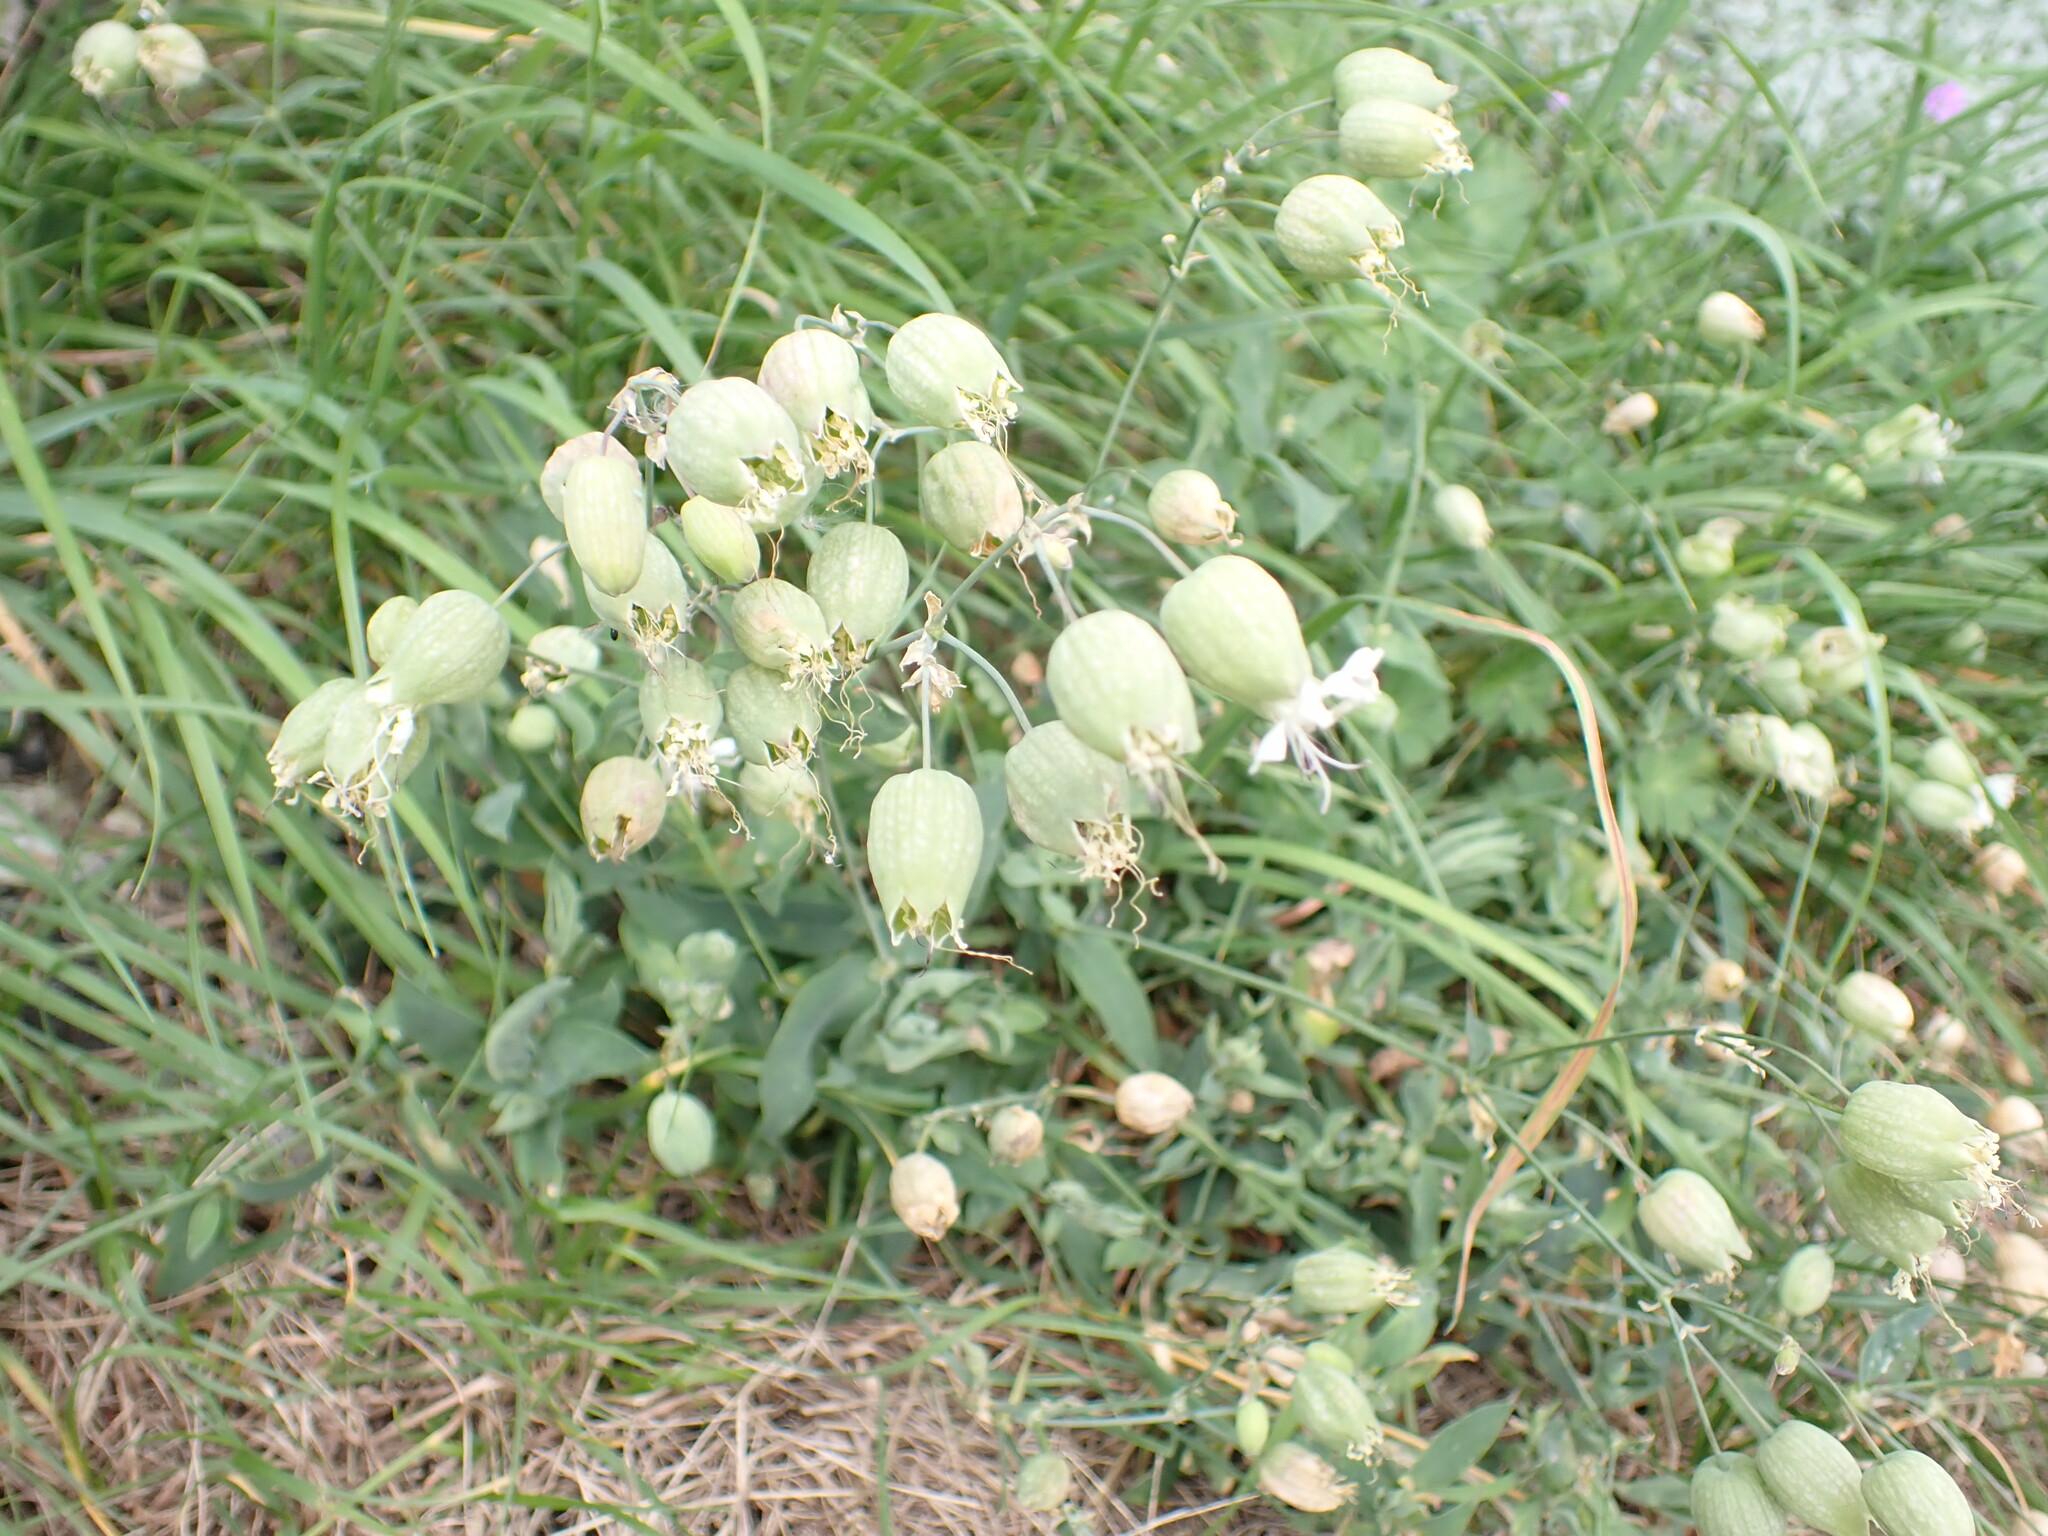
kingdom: Plantae
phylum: Tracheophyta
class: Magnoliopsida
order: Caryophyllales
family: Caryophyllaceae
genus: Silene
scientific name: Silene vulgaris
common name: Bladder campion
